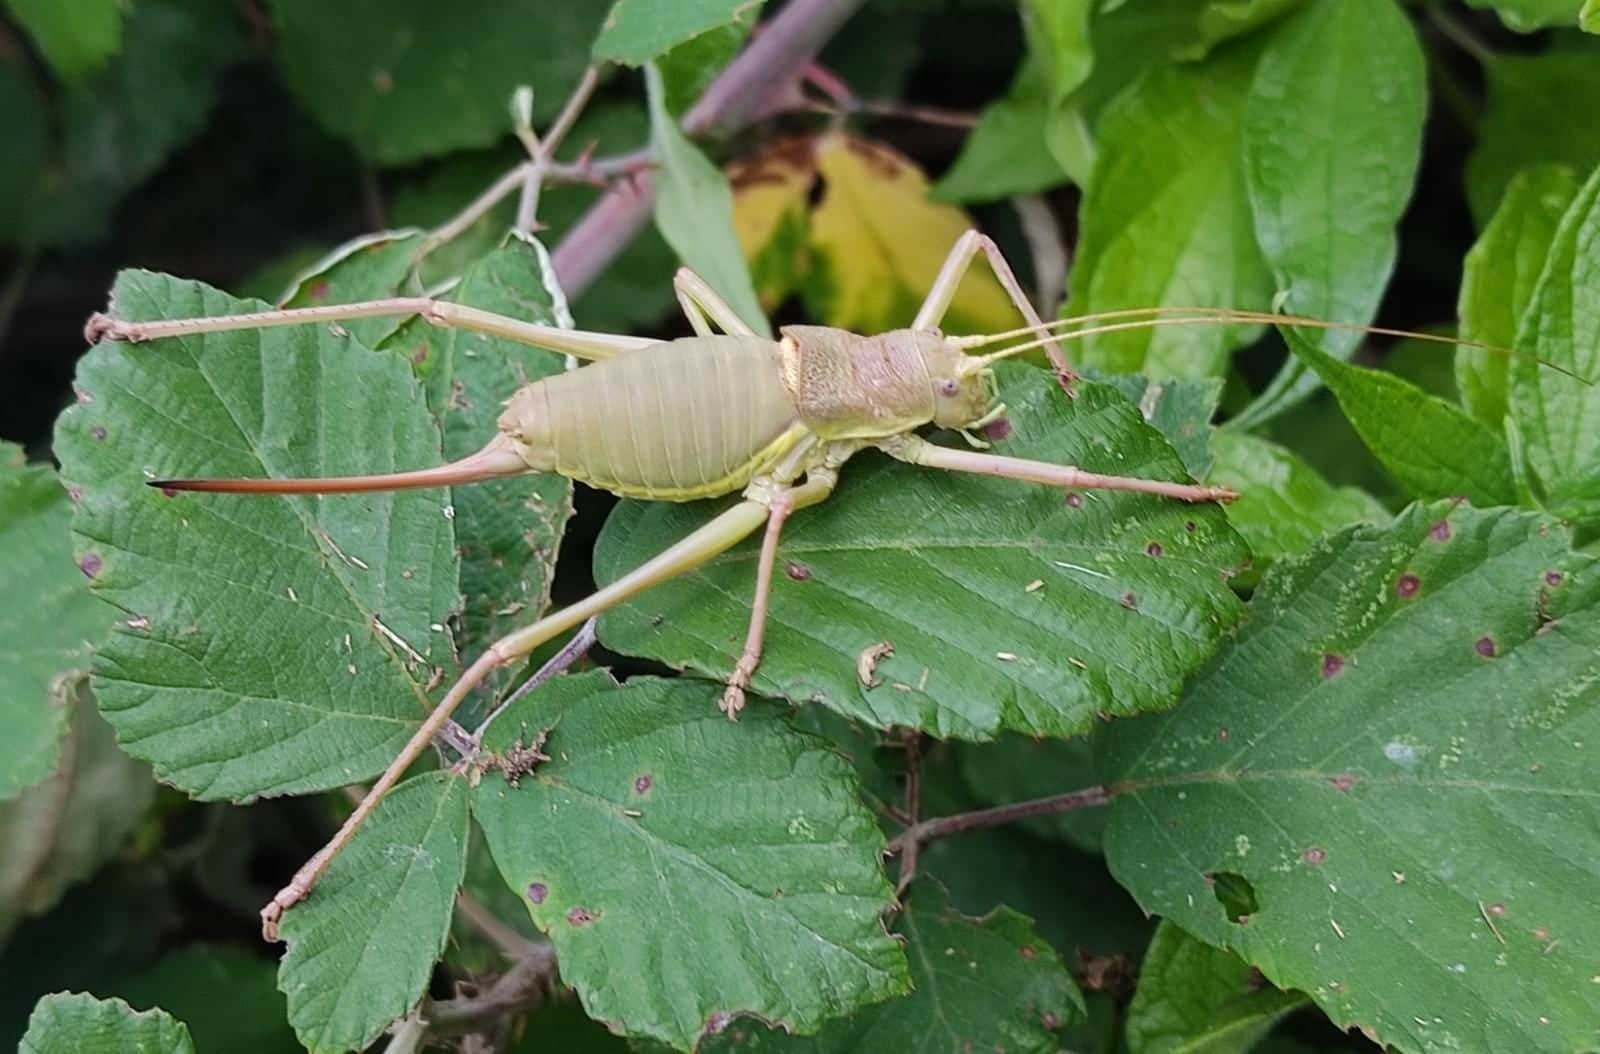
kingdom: Animalia
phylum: Arthropoda
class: Insecta
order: Orthoptera
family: Tettigoniidae
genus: Ephippiger
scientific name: Ephippiger perforatus
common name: Apennine saddle bush-cricket
